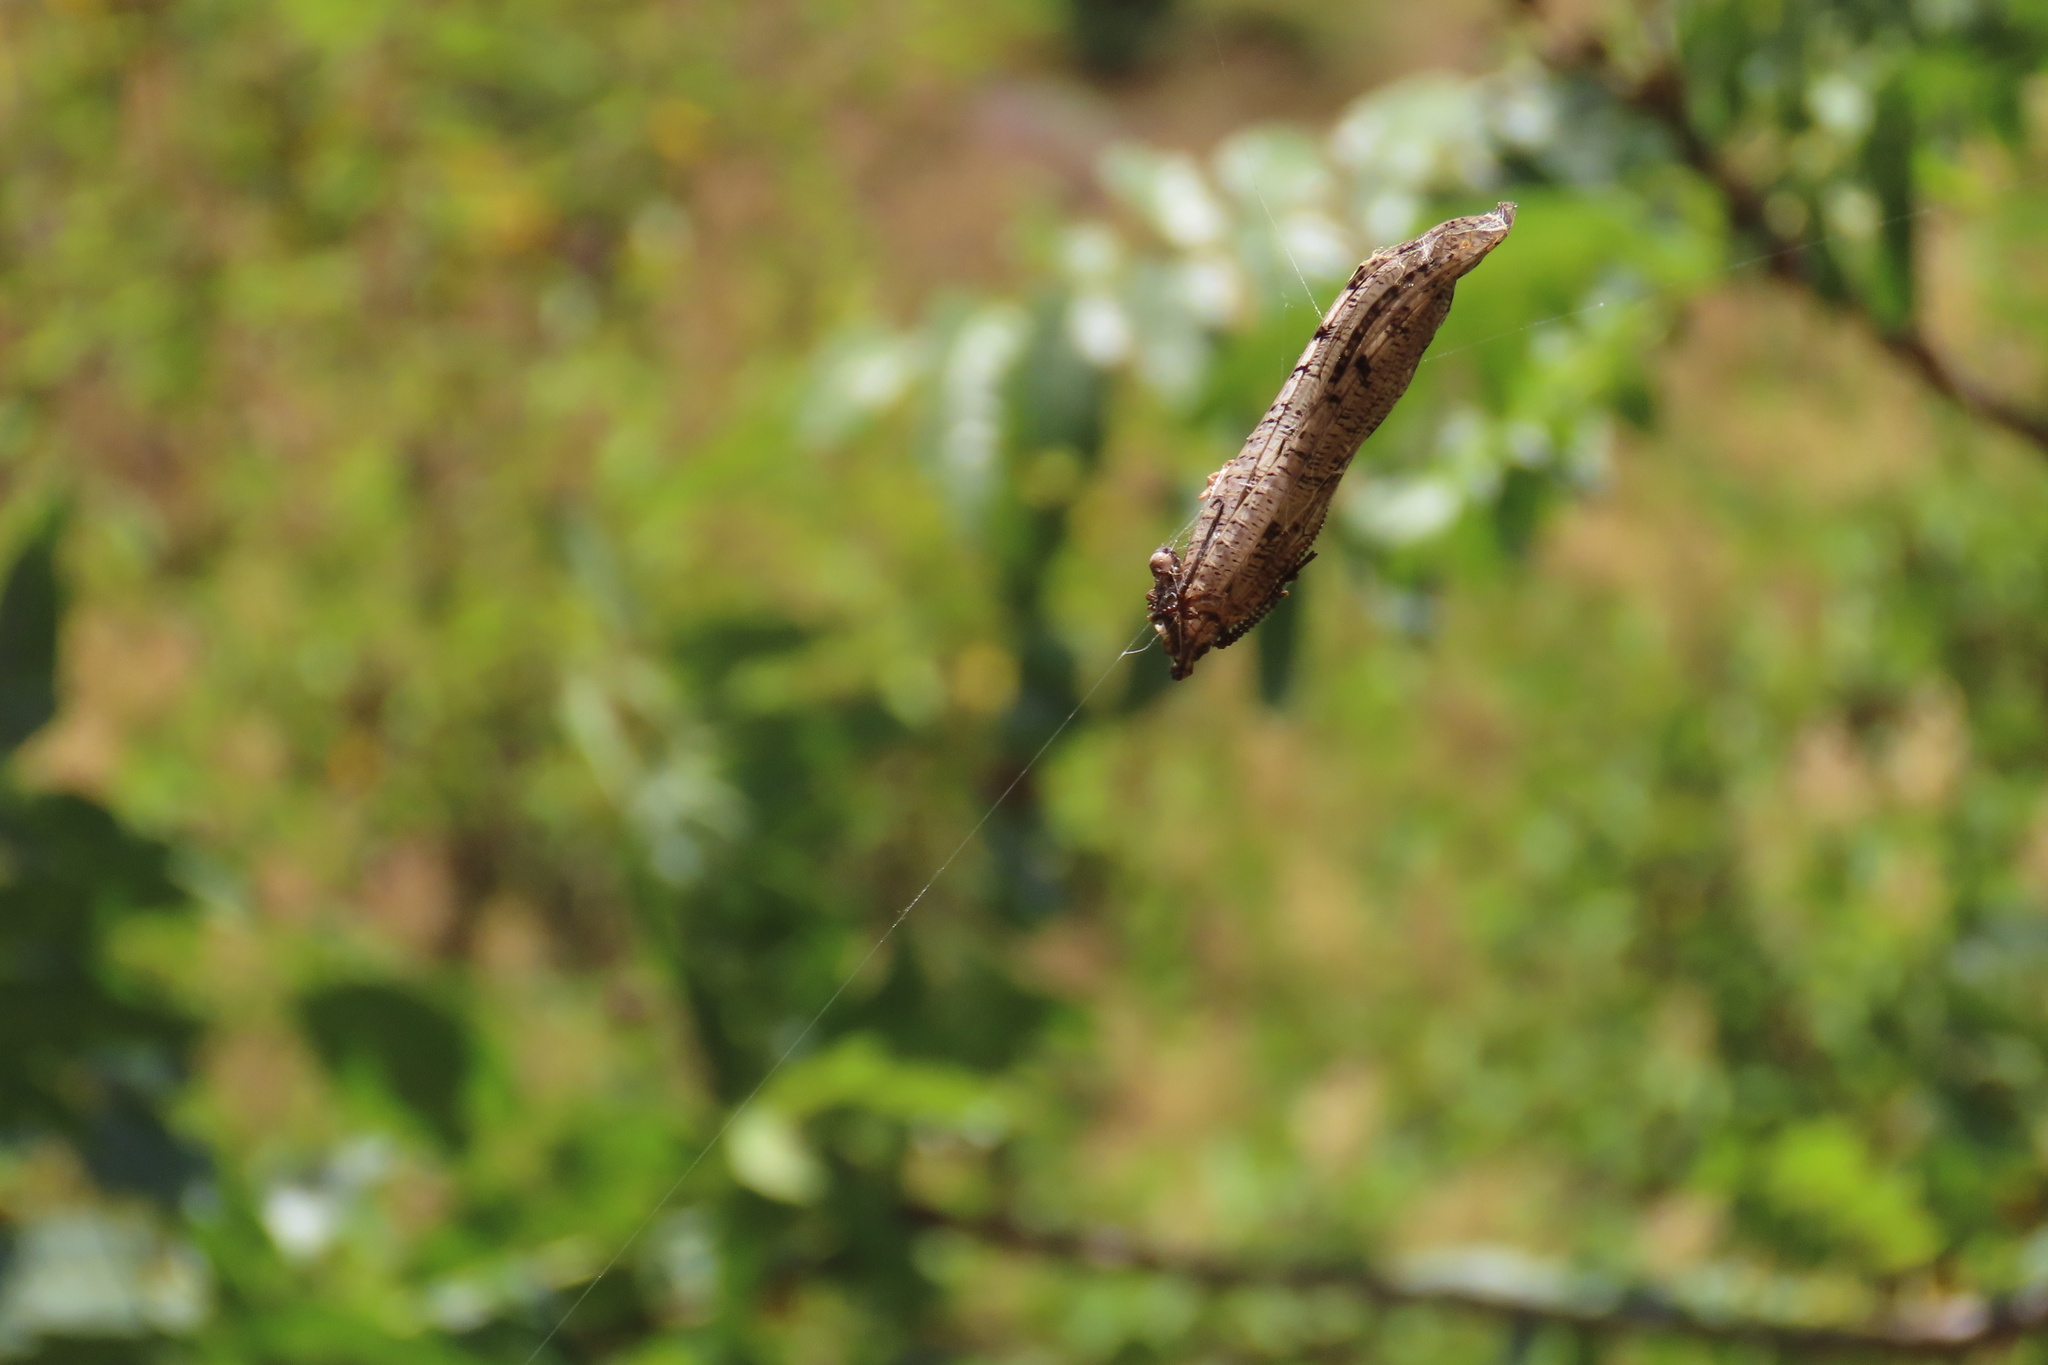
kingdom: Animalia
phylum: Arthropoda
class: Insecta
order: Megaloptera
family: Corydalidae
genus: Neohermes
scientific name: Neohermes filicornis
